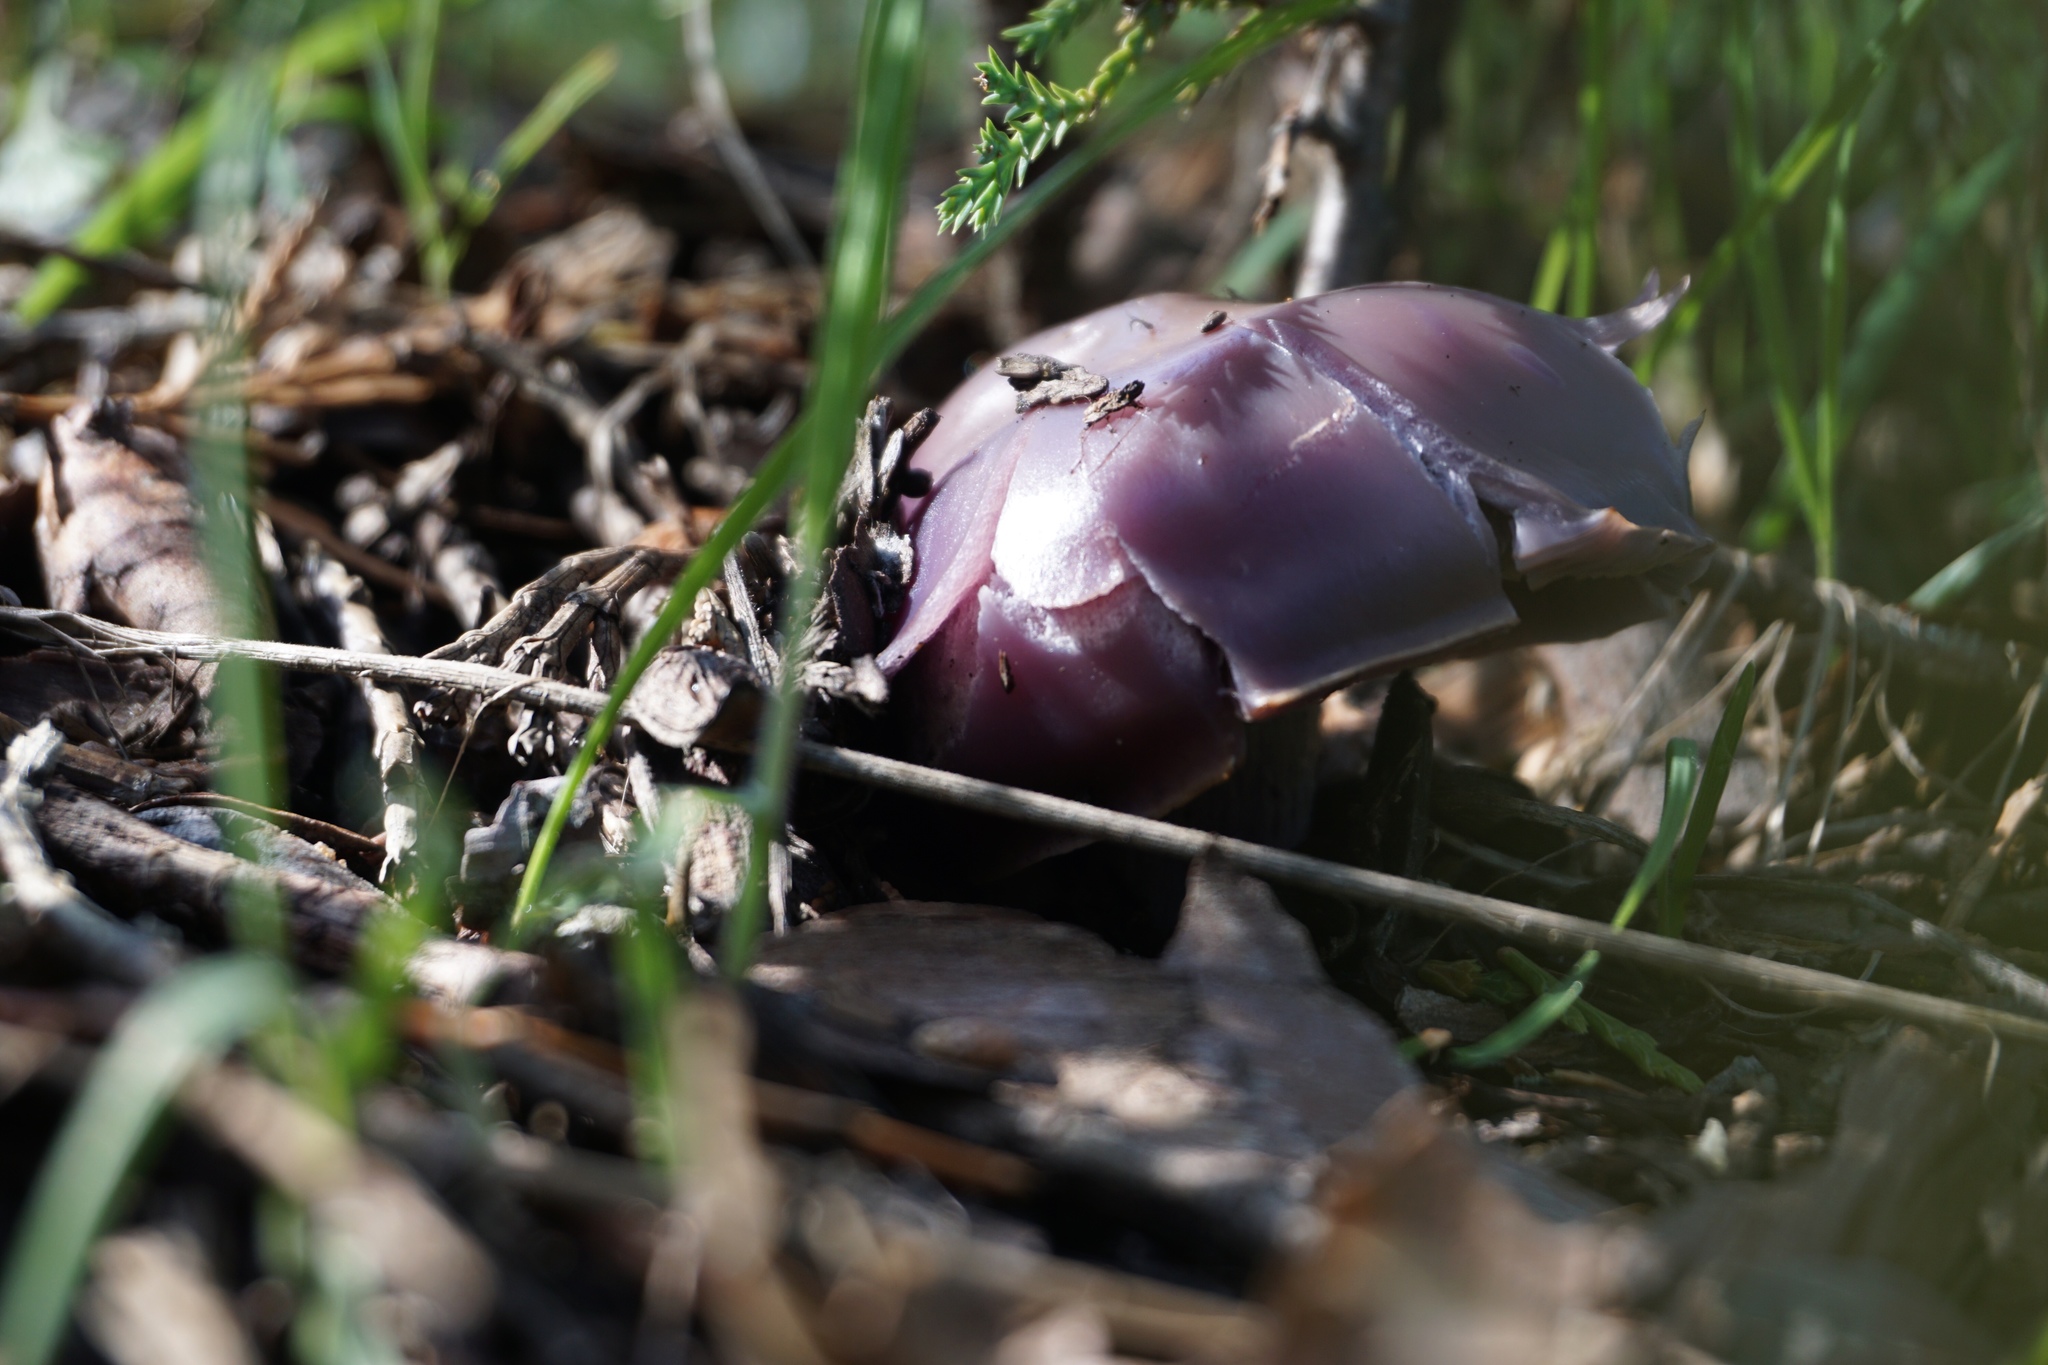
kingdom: Fungi
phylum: Basidiomycota
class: Agaricomycetes
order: Agaricales
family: Tricholomataceae
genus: Collybia
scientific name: Collybia
